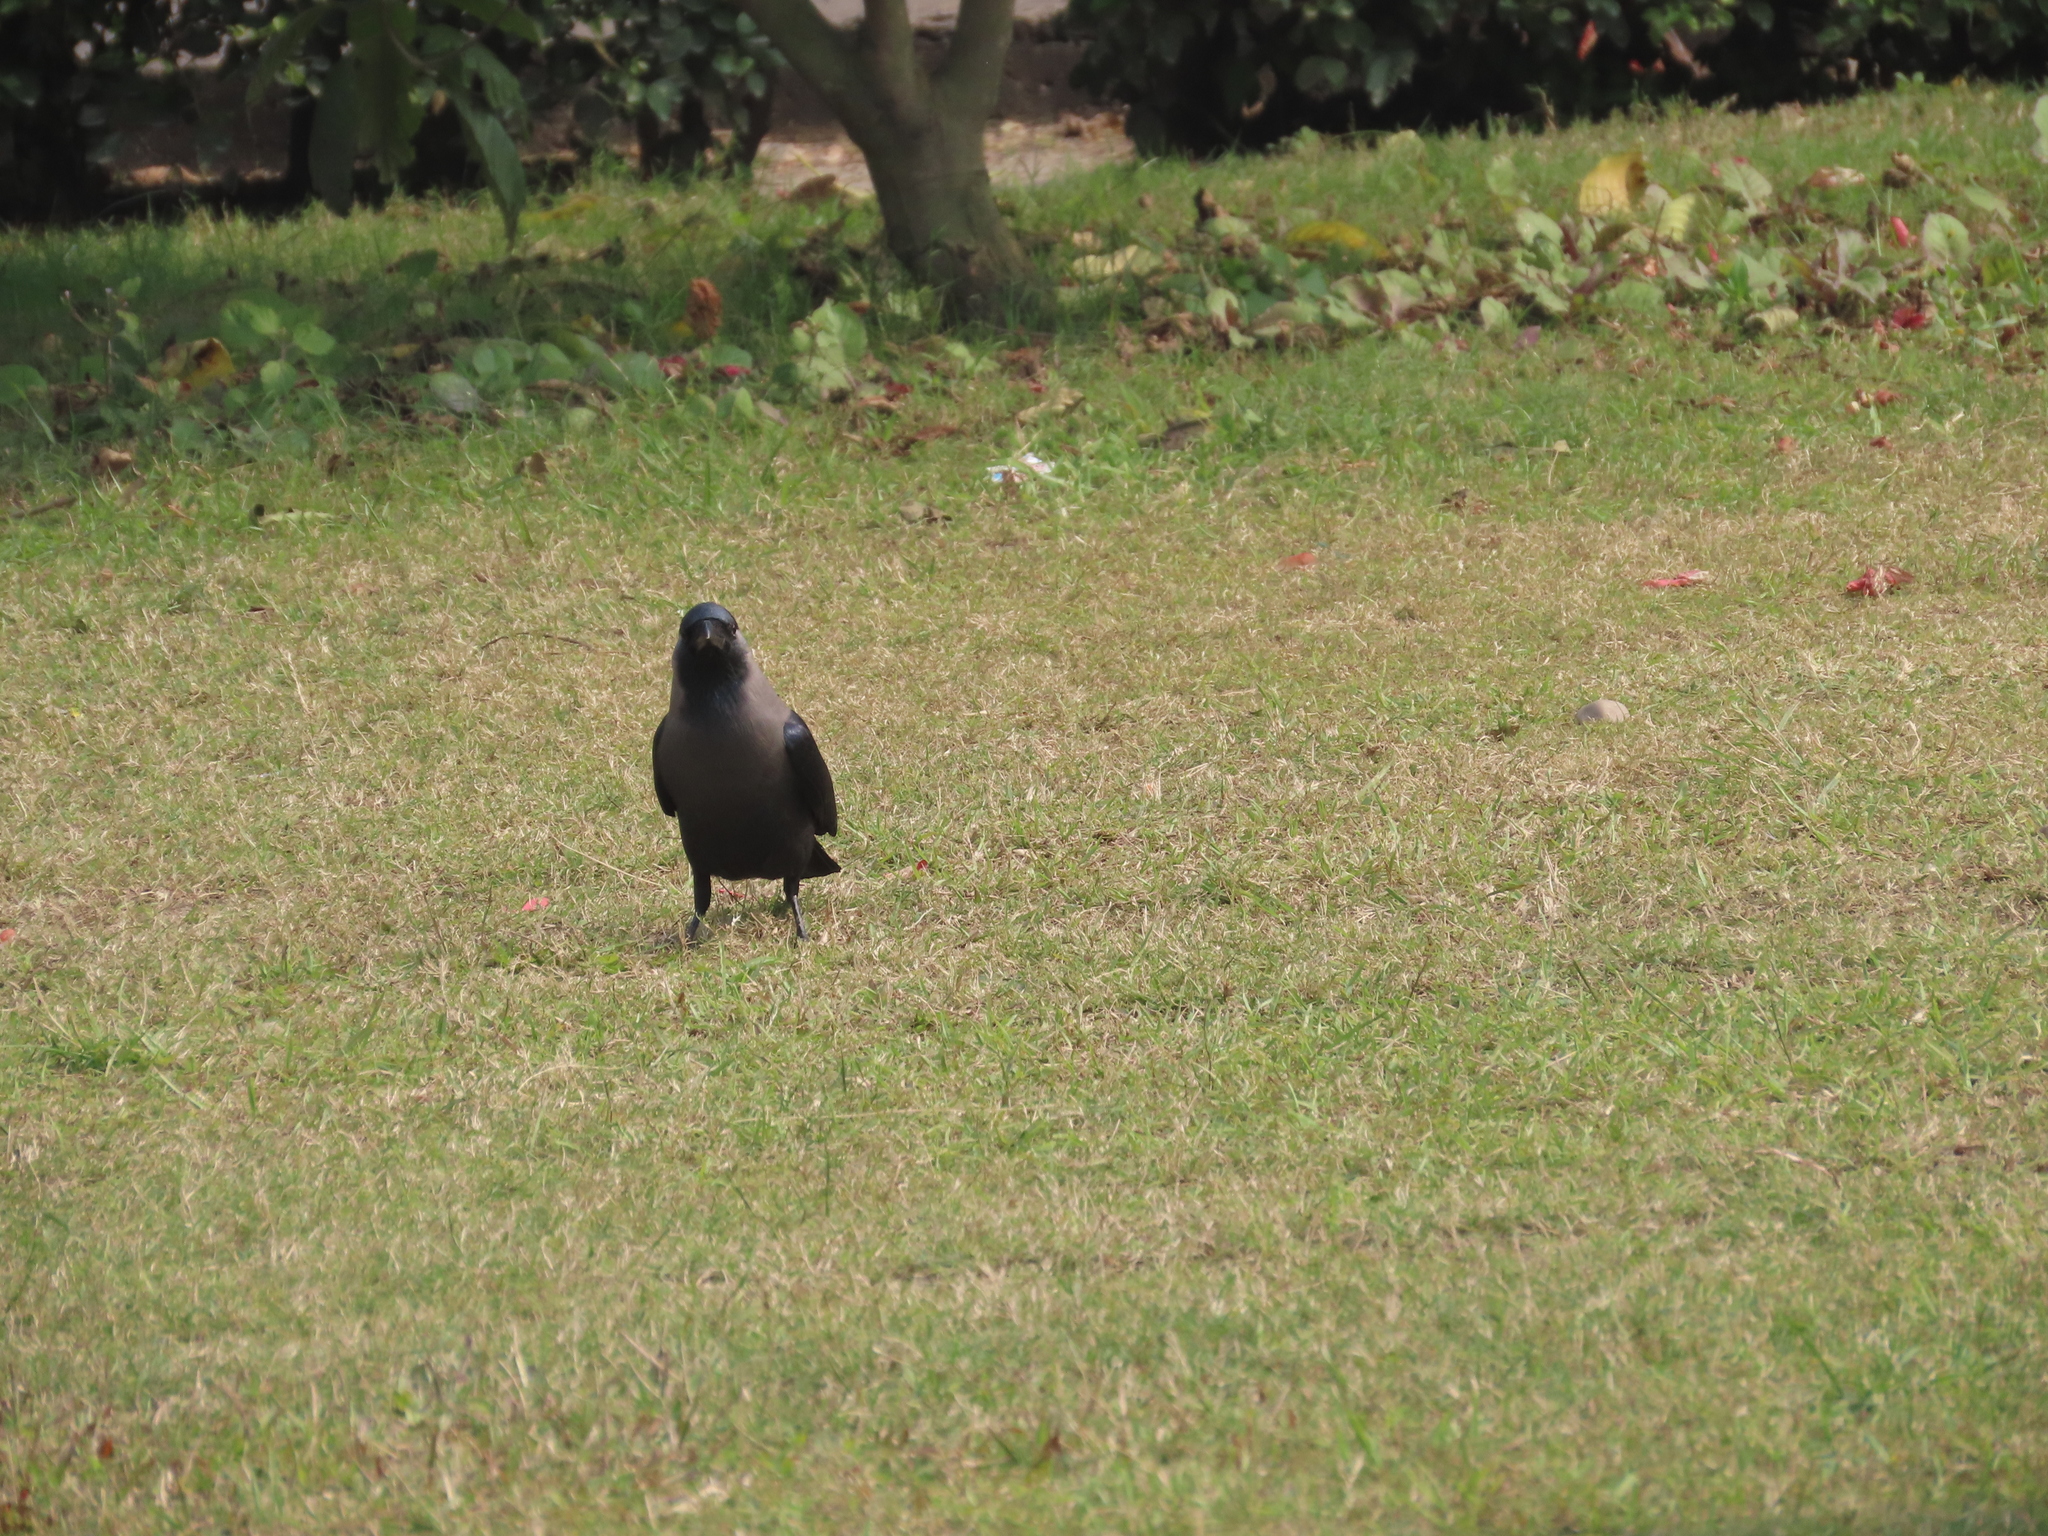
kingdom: Animalia
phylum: Chordata
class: Aves
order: Passeriformes
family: Corvidae
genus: Corvus
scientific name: Corvus splendens
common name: House crow
